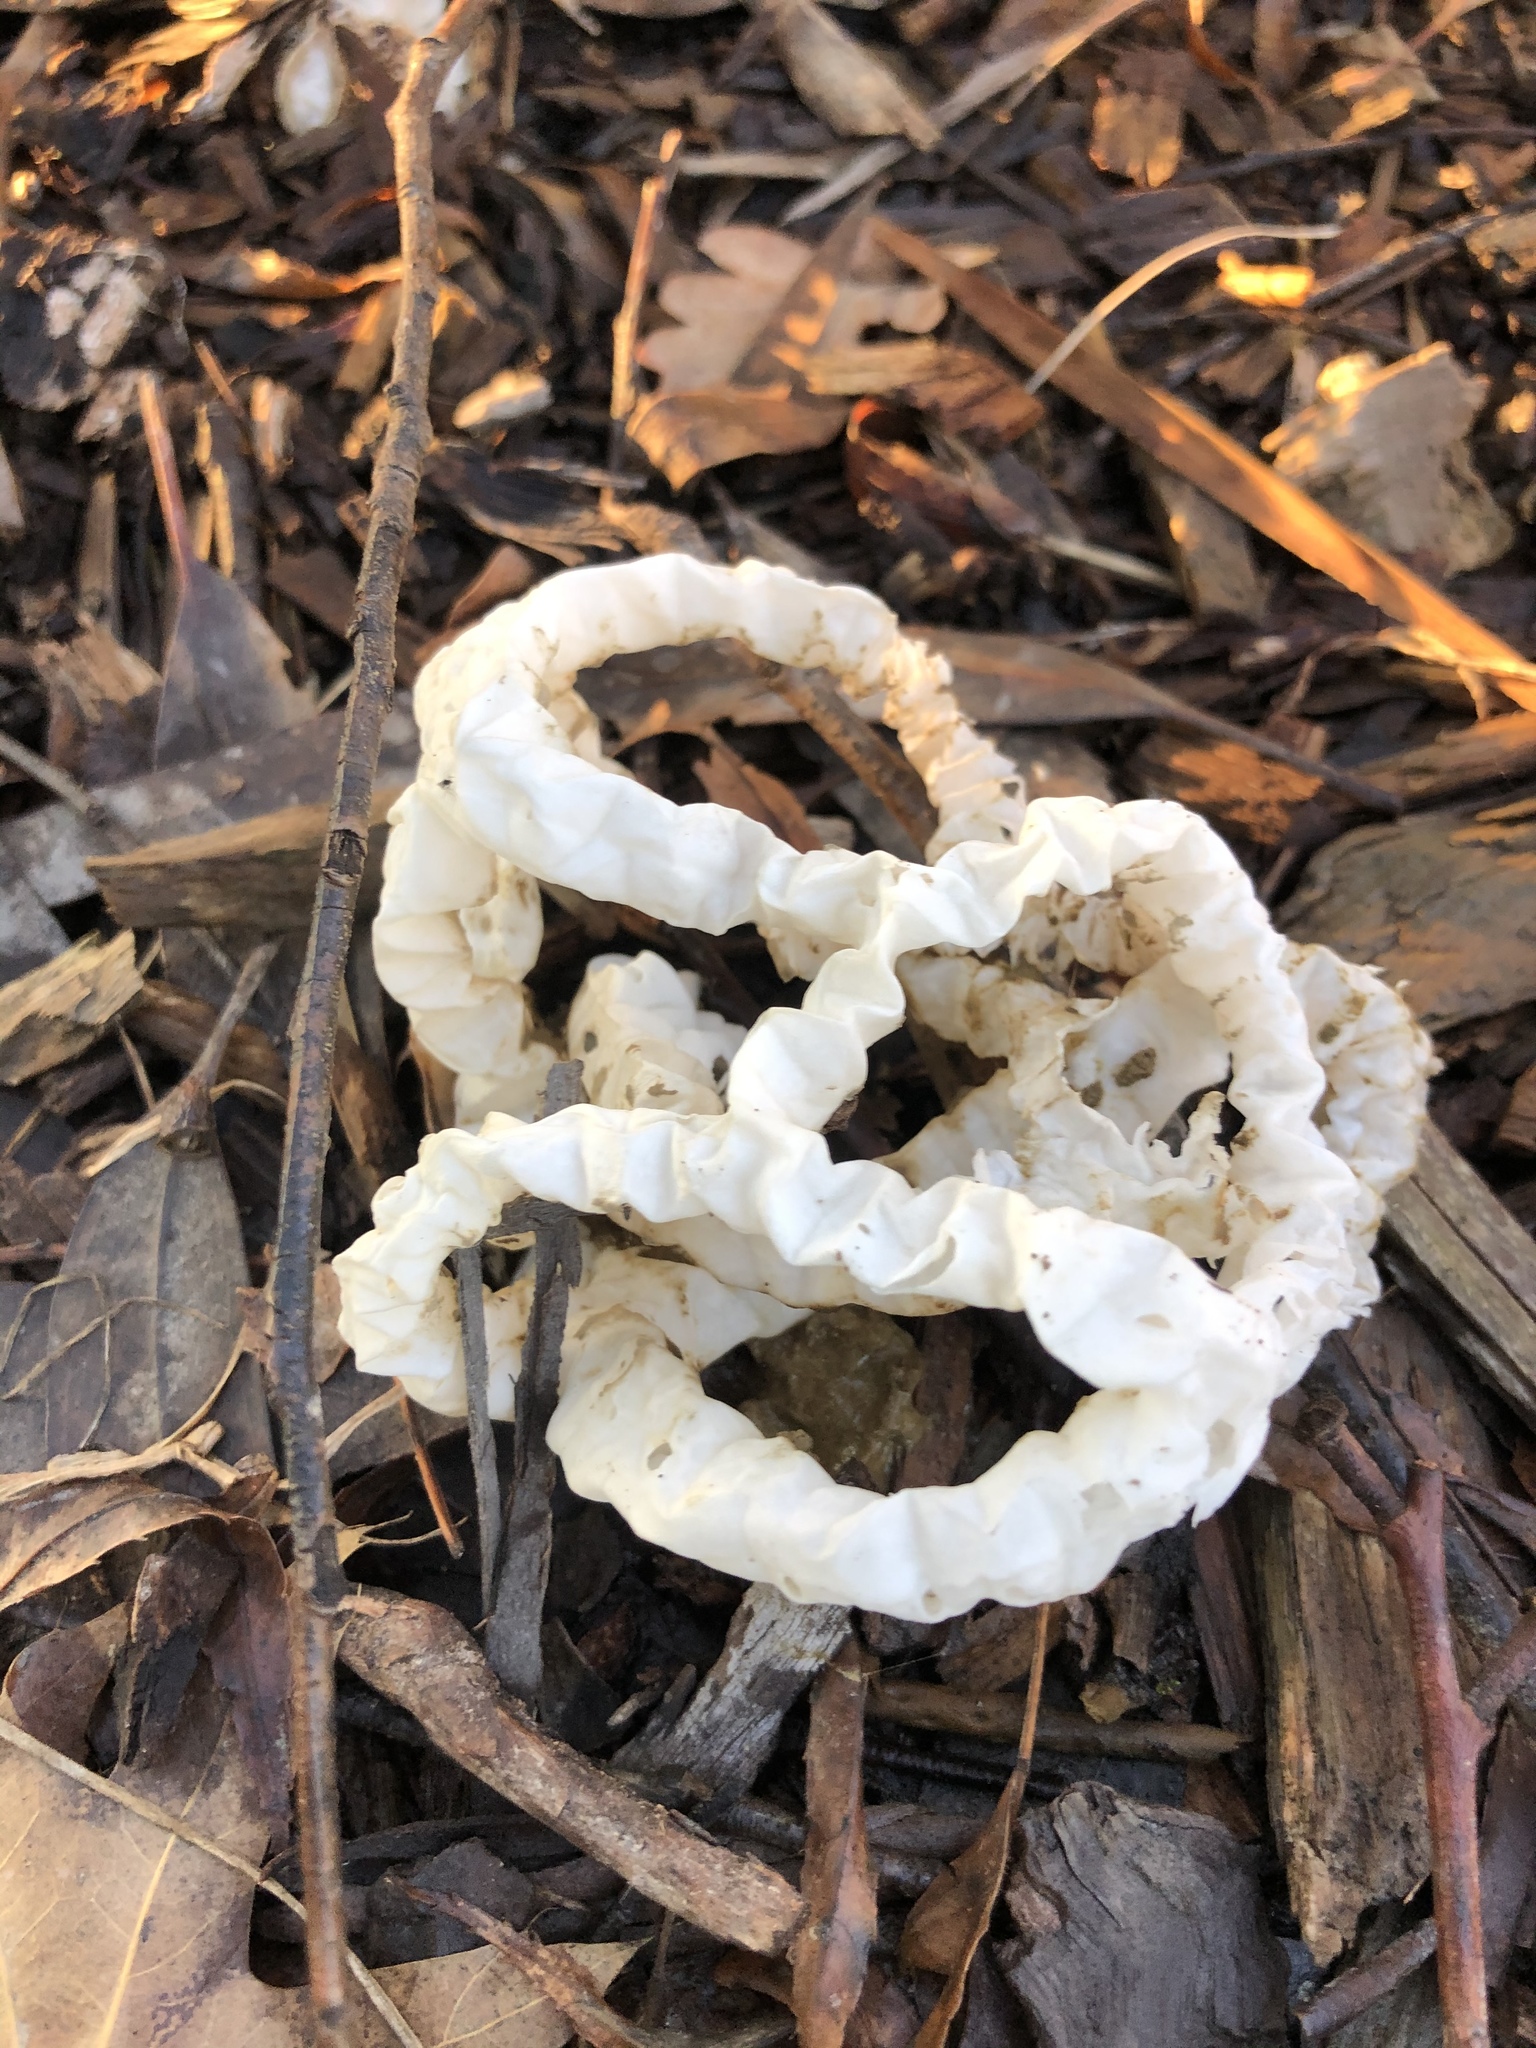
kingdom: Fungi
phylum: Basidiomycota
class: Agaricomycetes
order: Phallales
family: Phallaceae
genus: Ileodictyon
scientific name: Ileodictyon cibarium
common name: Basket fungus
